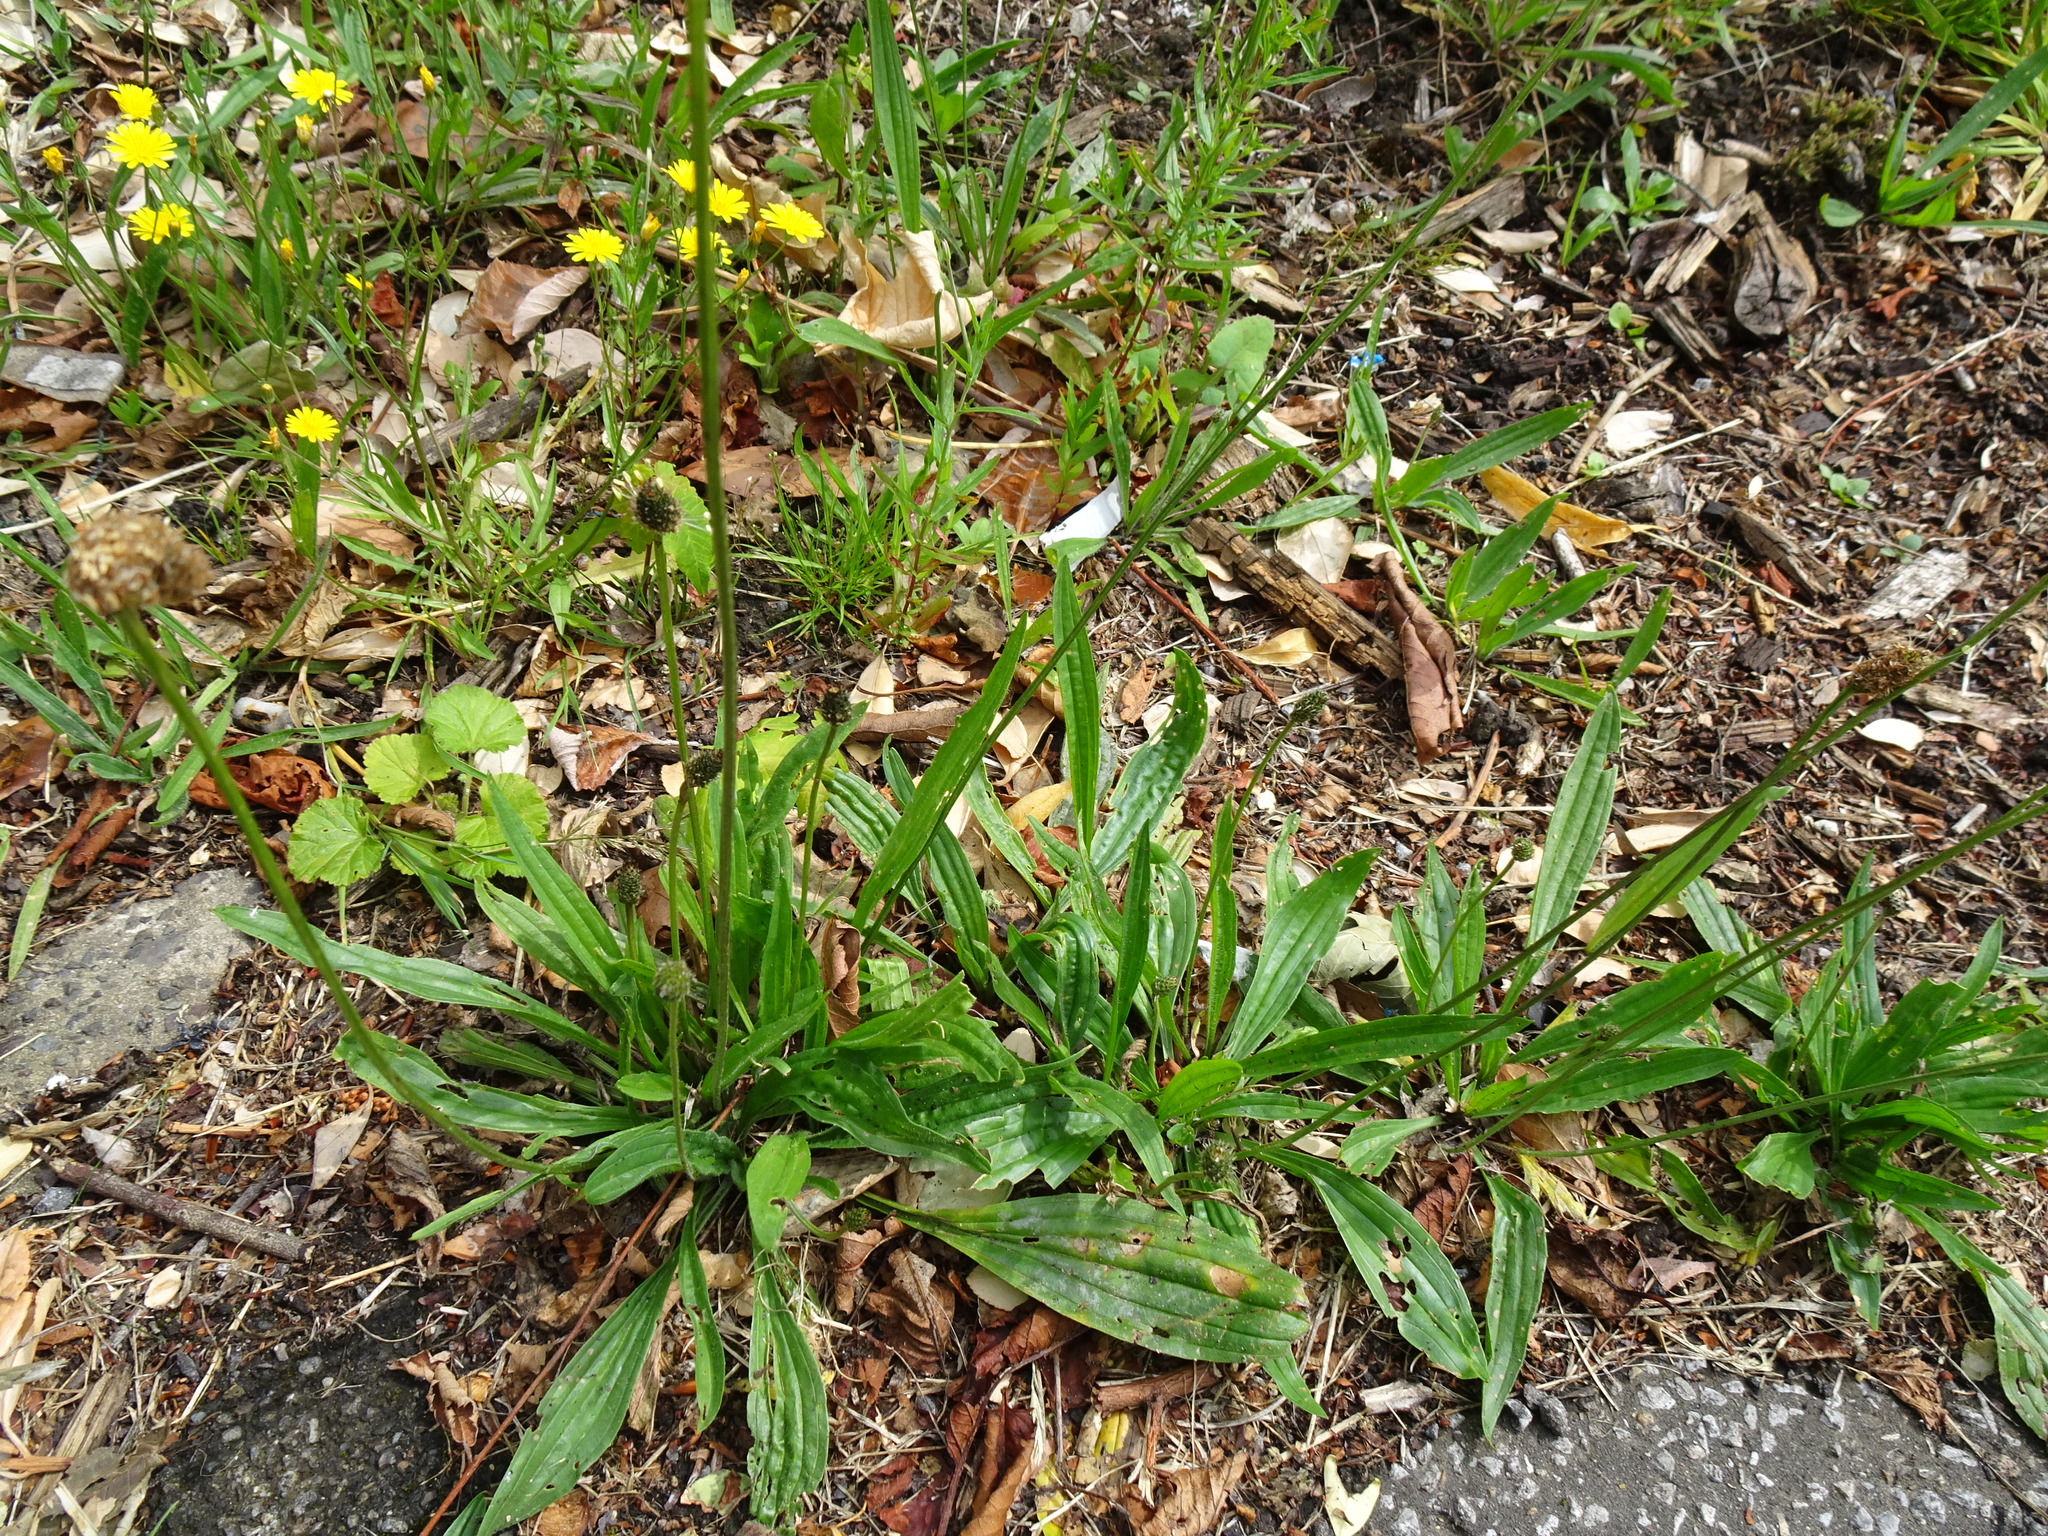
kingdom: Plantae
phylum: Tracheophyta
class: Magnoliopsida
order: Lamiales
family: Plantaginaceae
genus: Plantago
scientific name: Plantago lanceolata
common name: Ribwort plantain
